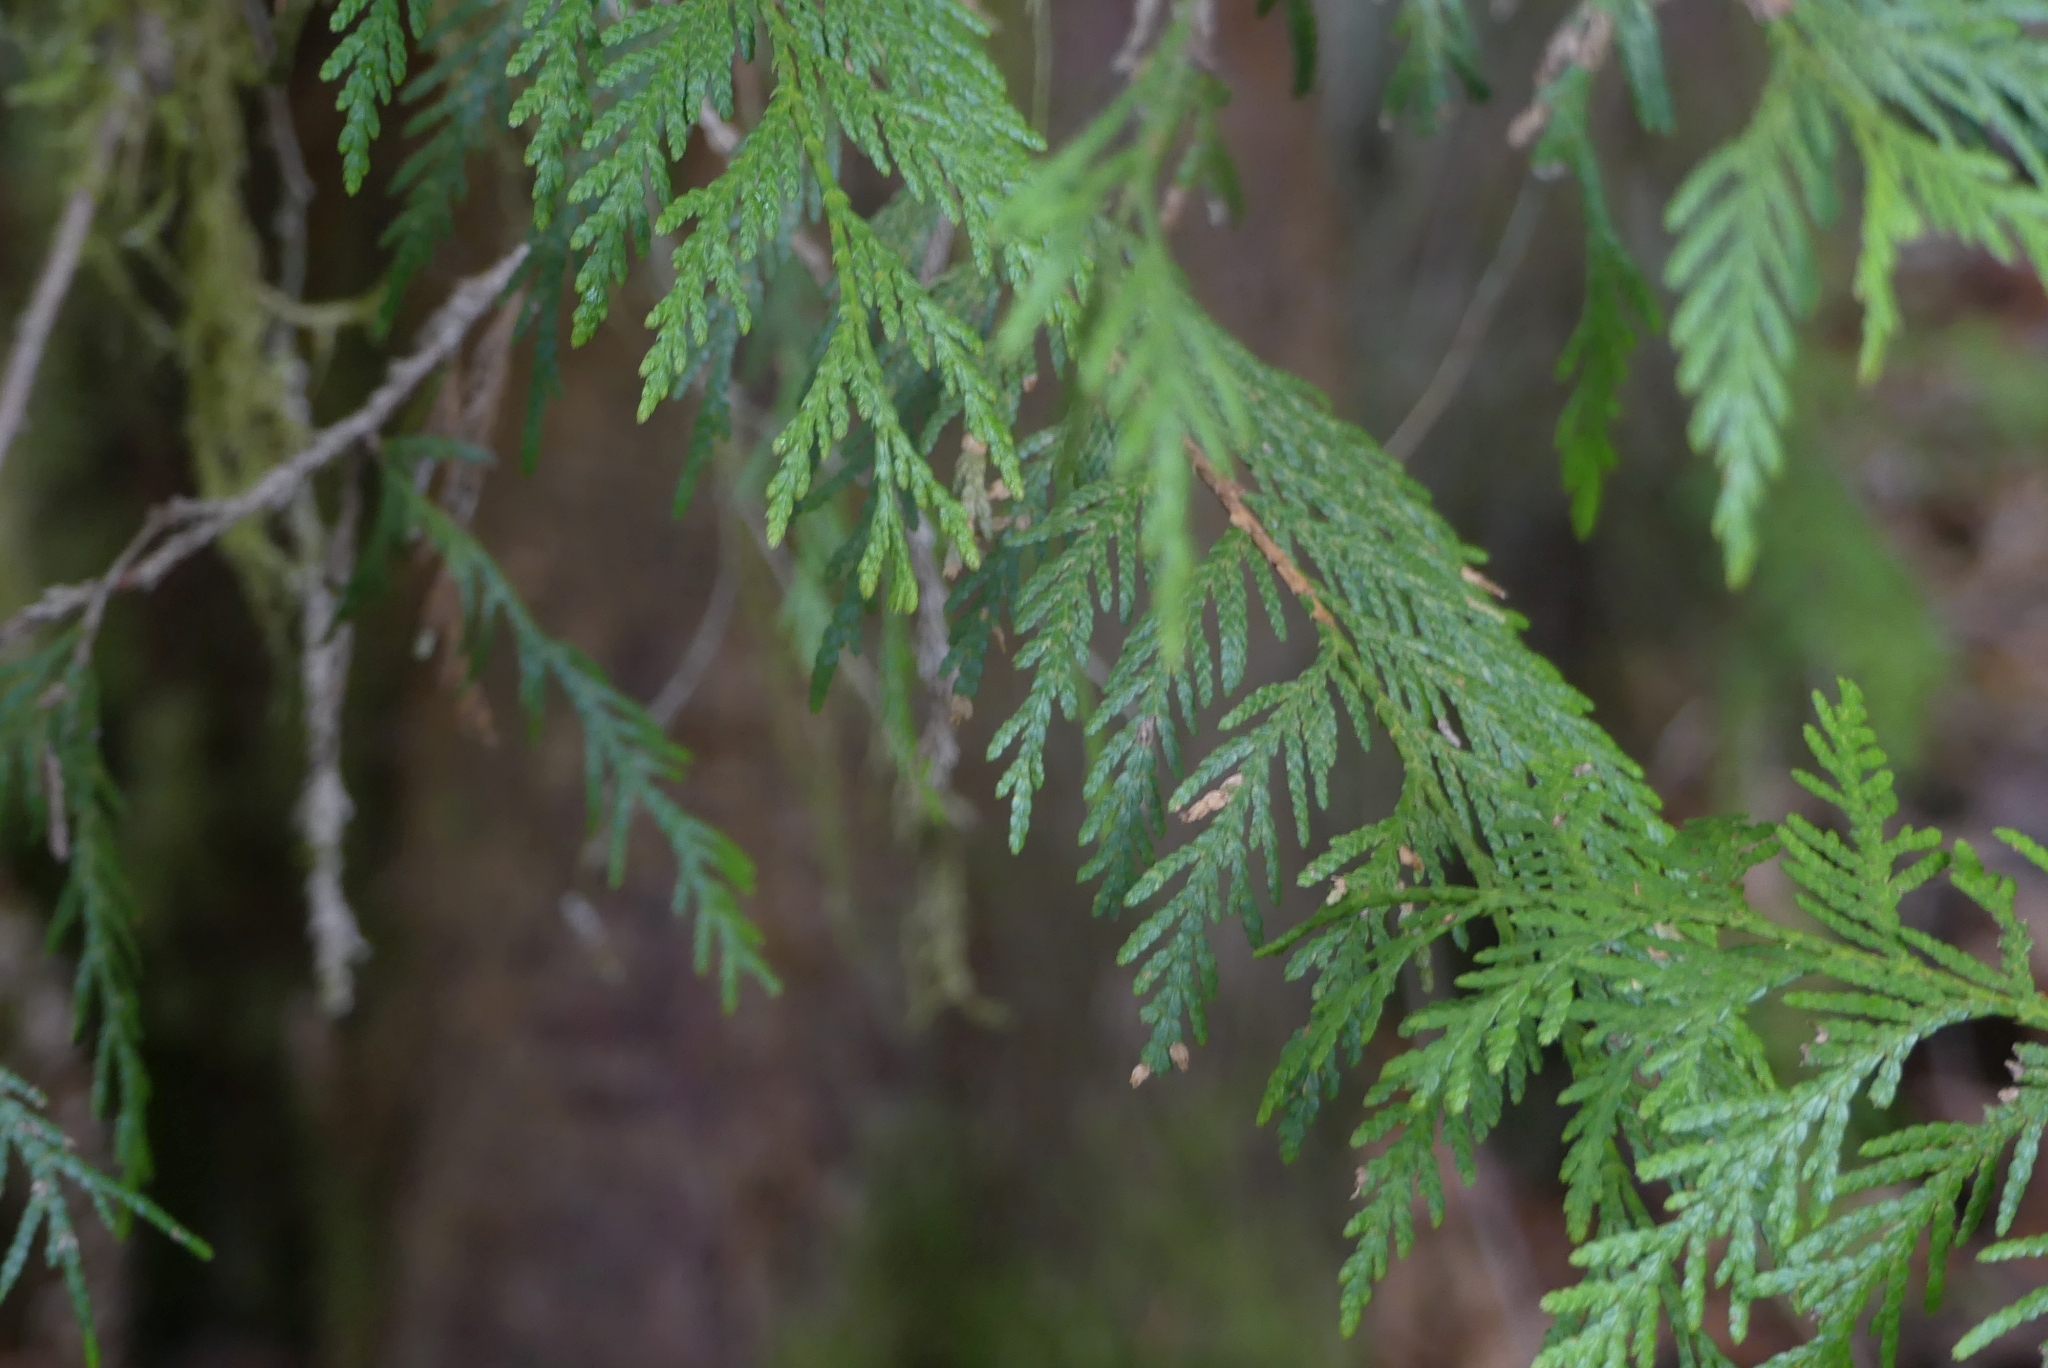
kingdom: Plantae
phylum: Tracheophyta
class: Pinopsida
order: Pinales
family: Cupressaceae
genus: Thuja
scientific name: Thuja plicata
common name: Western red-cedar
